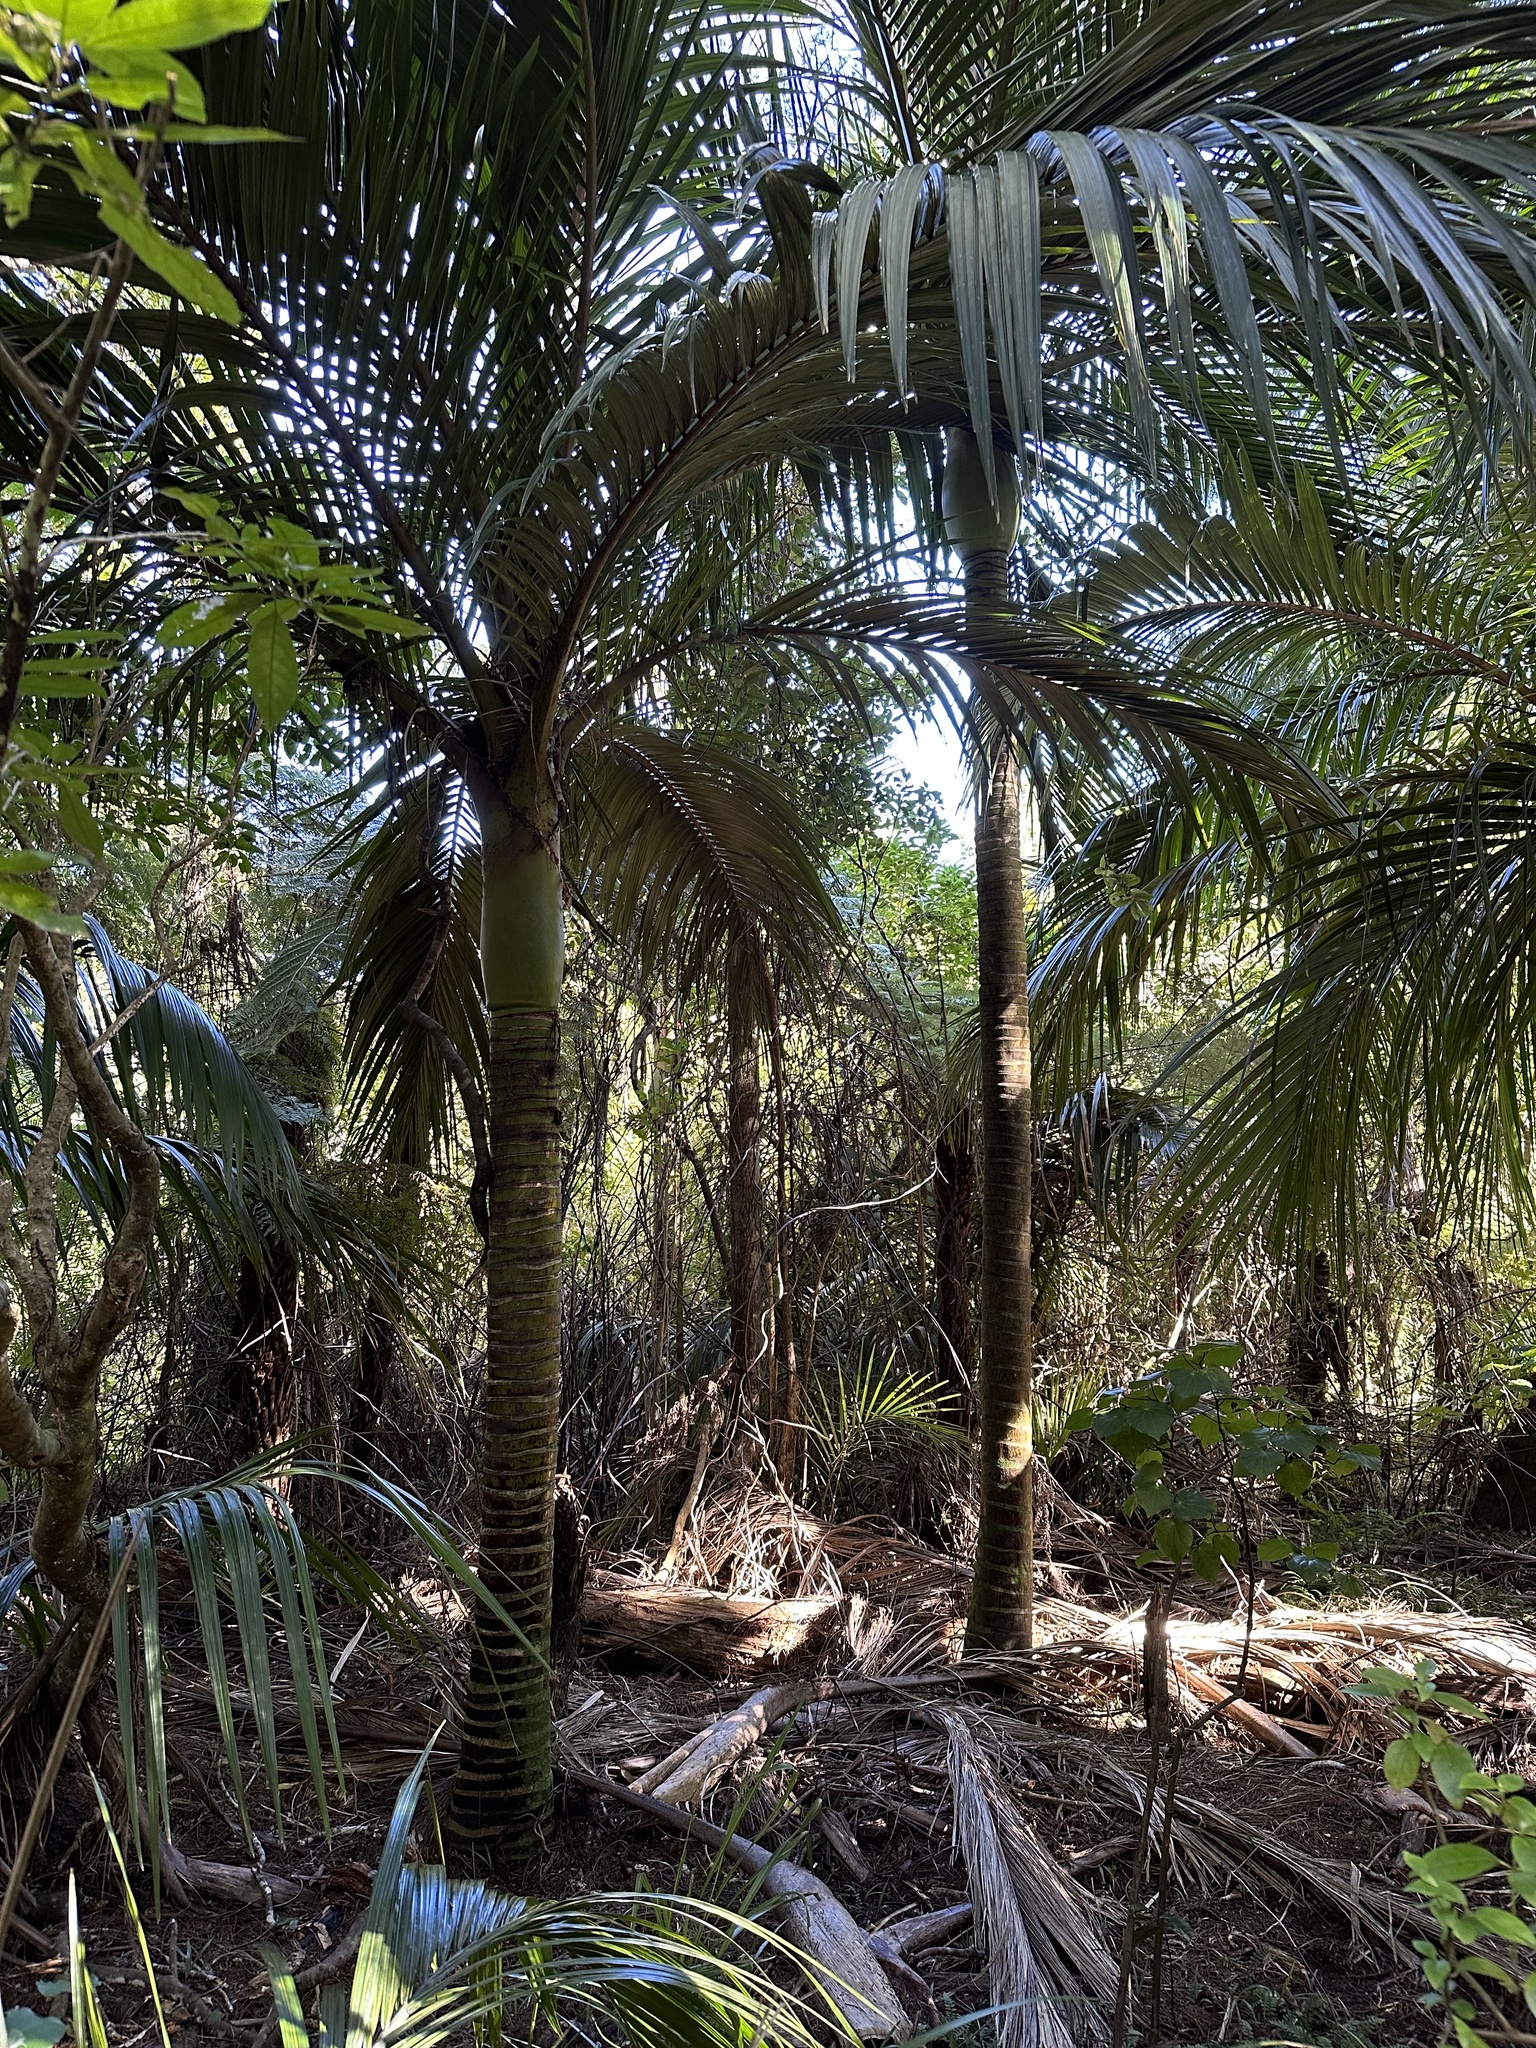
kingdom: Plantae
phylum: Tracheophyta
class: Liliopsida
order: Arecales
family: Arecaceae
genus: Rhopalostylis
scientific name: Rhopalostylis sapida
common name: Feather-duster palm
